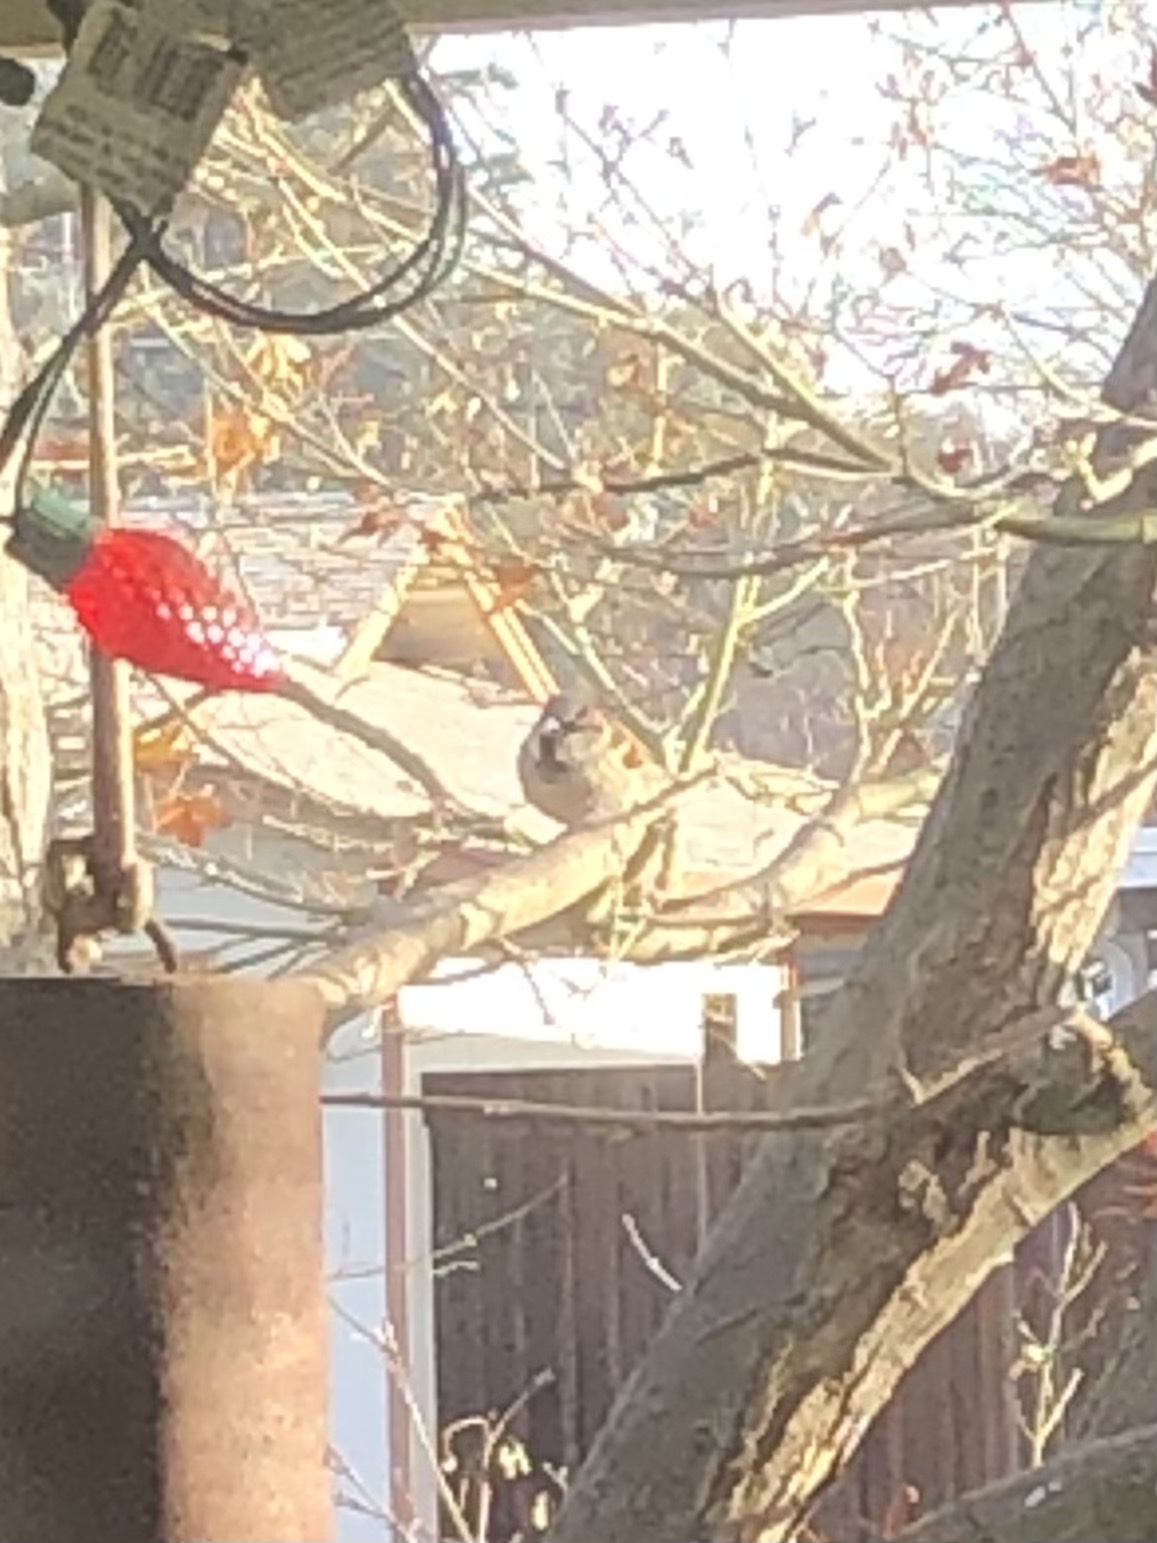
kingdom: Animalia
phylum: Chordata
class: Aves
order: Passeriformes
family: Passeridae
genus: Passer
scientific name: Passer domesticus
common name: House sparrow
